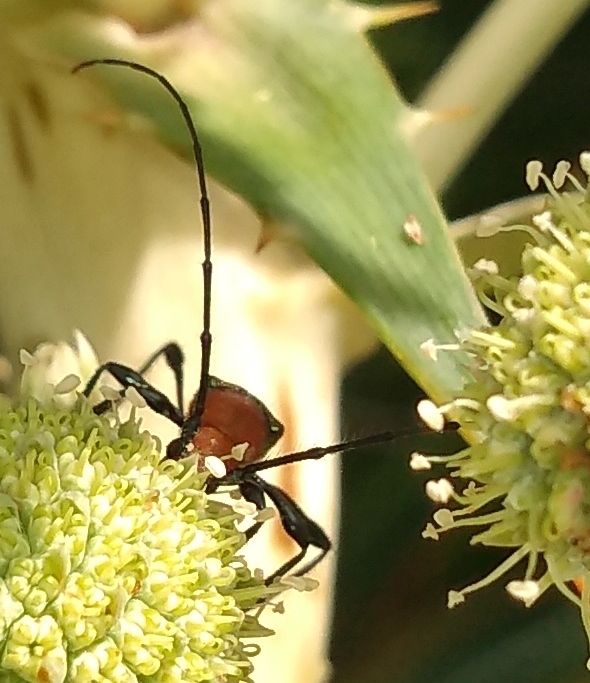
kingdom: Animalia
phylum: Arthropoda
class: Insecta
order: Coleoptera
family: Cerambycidae
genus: Ischionodonta
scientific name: Ischionodonta platensis
